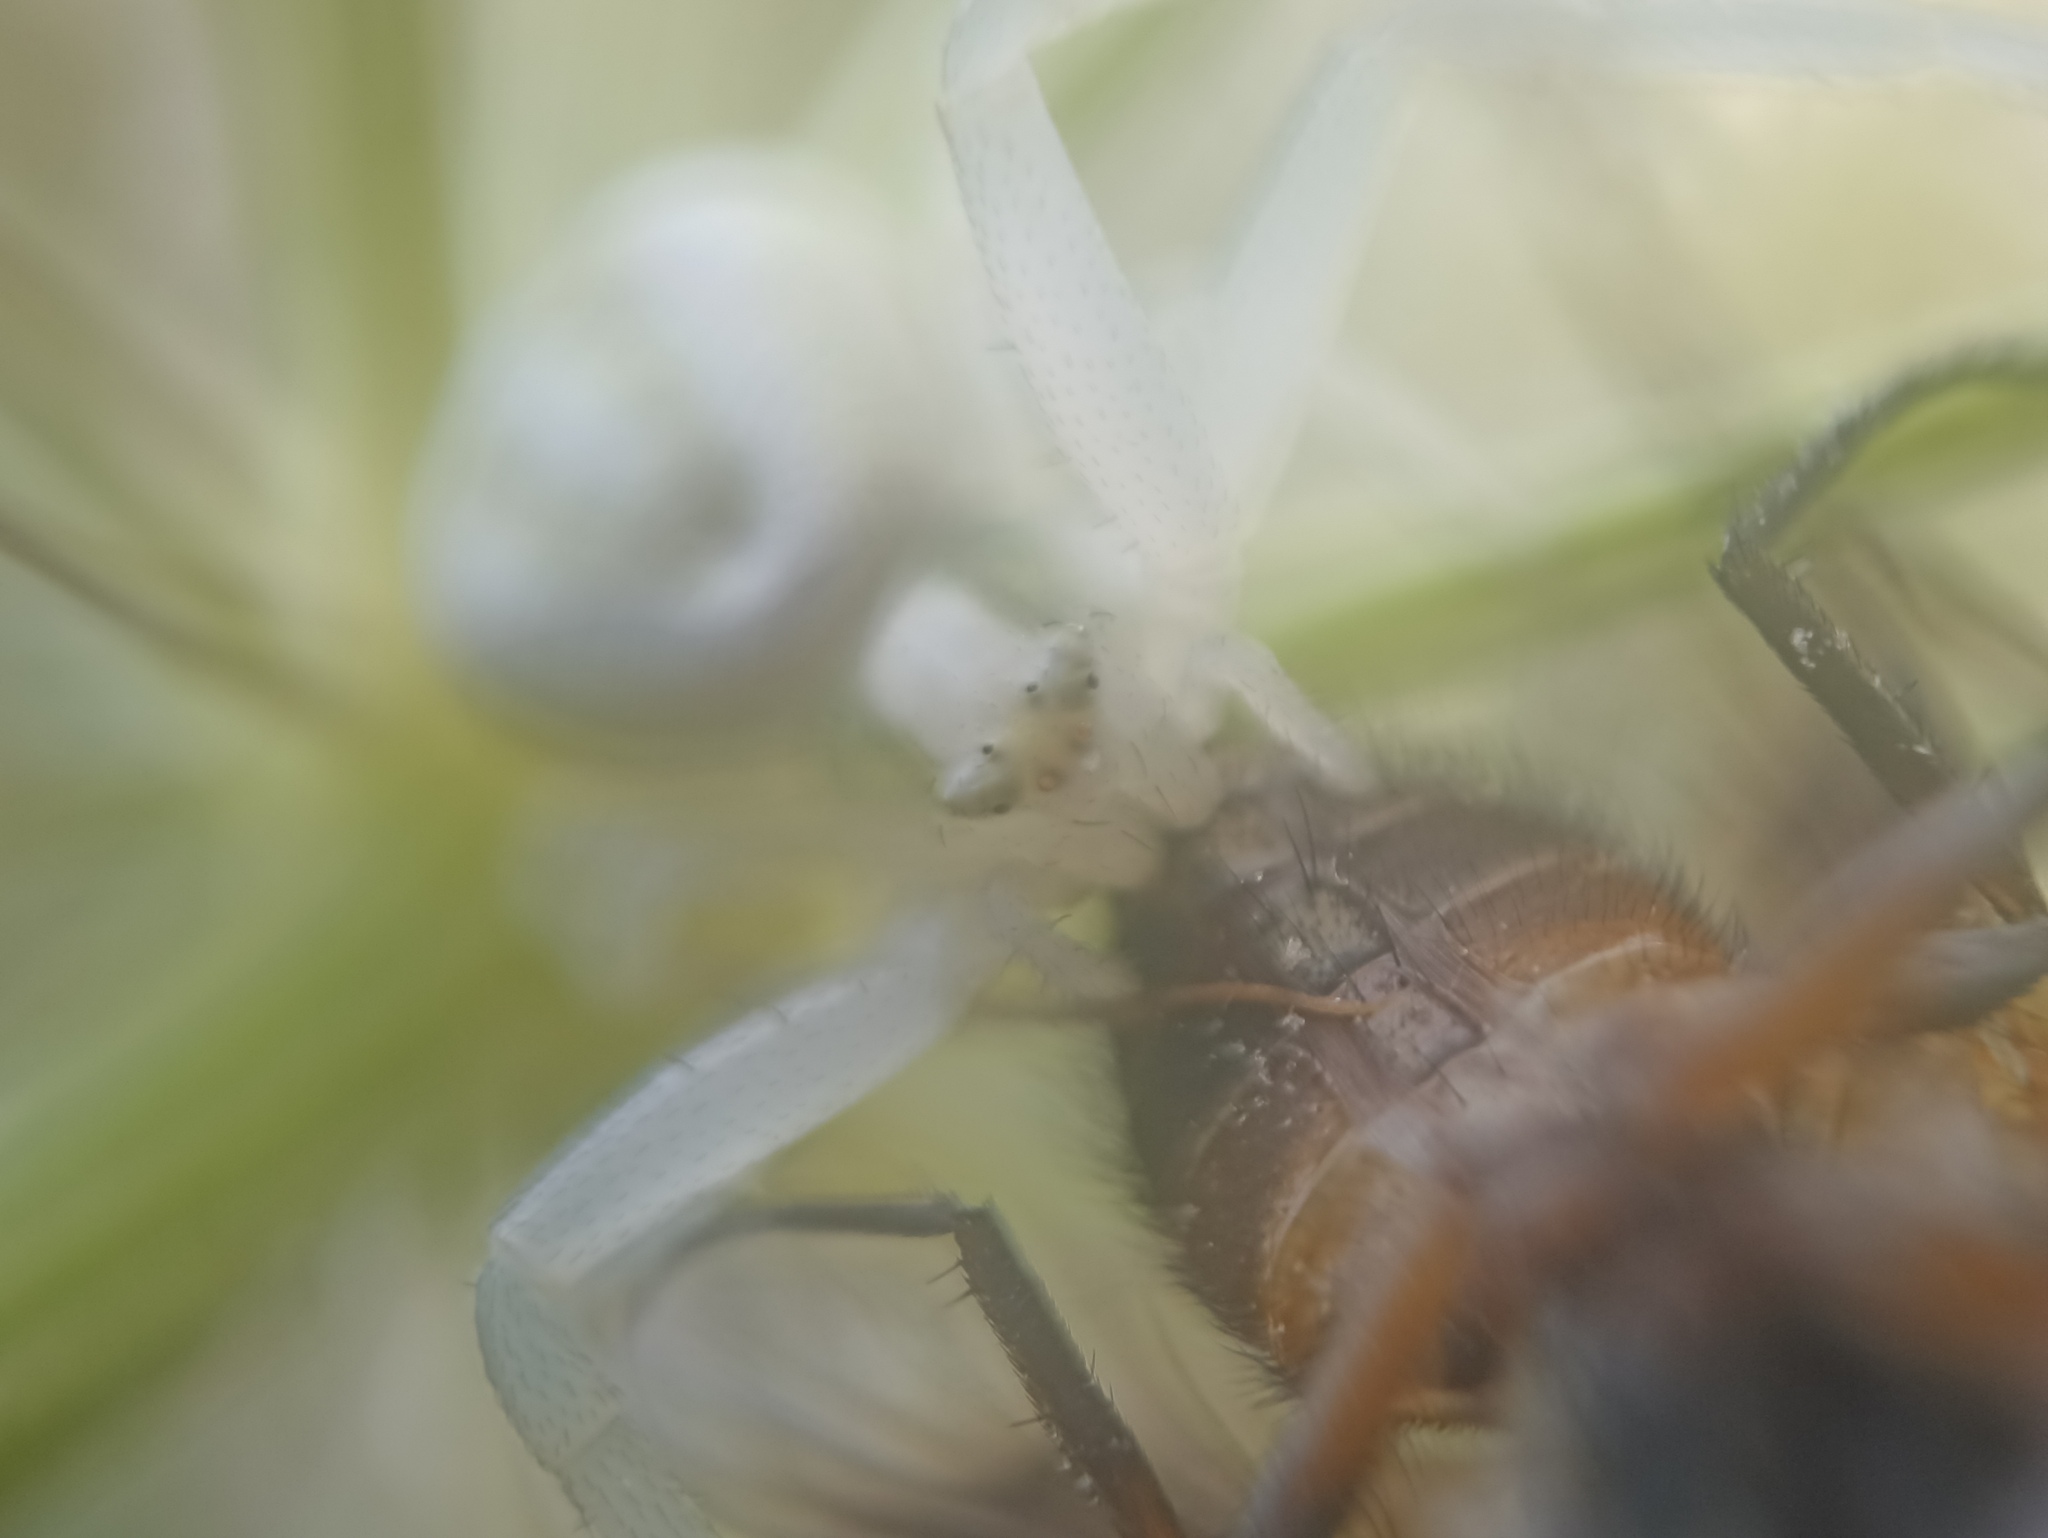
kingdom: Animalia
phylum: Arthropoda
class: Arachnida
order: Araneae
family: Thomisidae
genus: Misumena
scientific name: Misumena vatia
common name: Goldenrod crab spider
